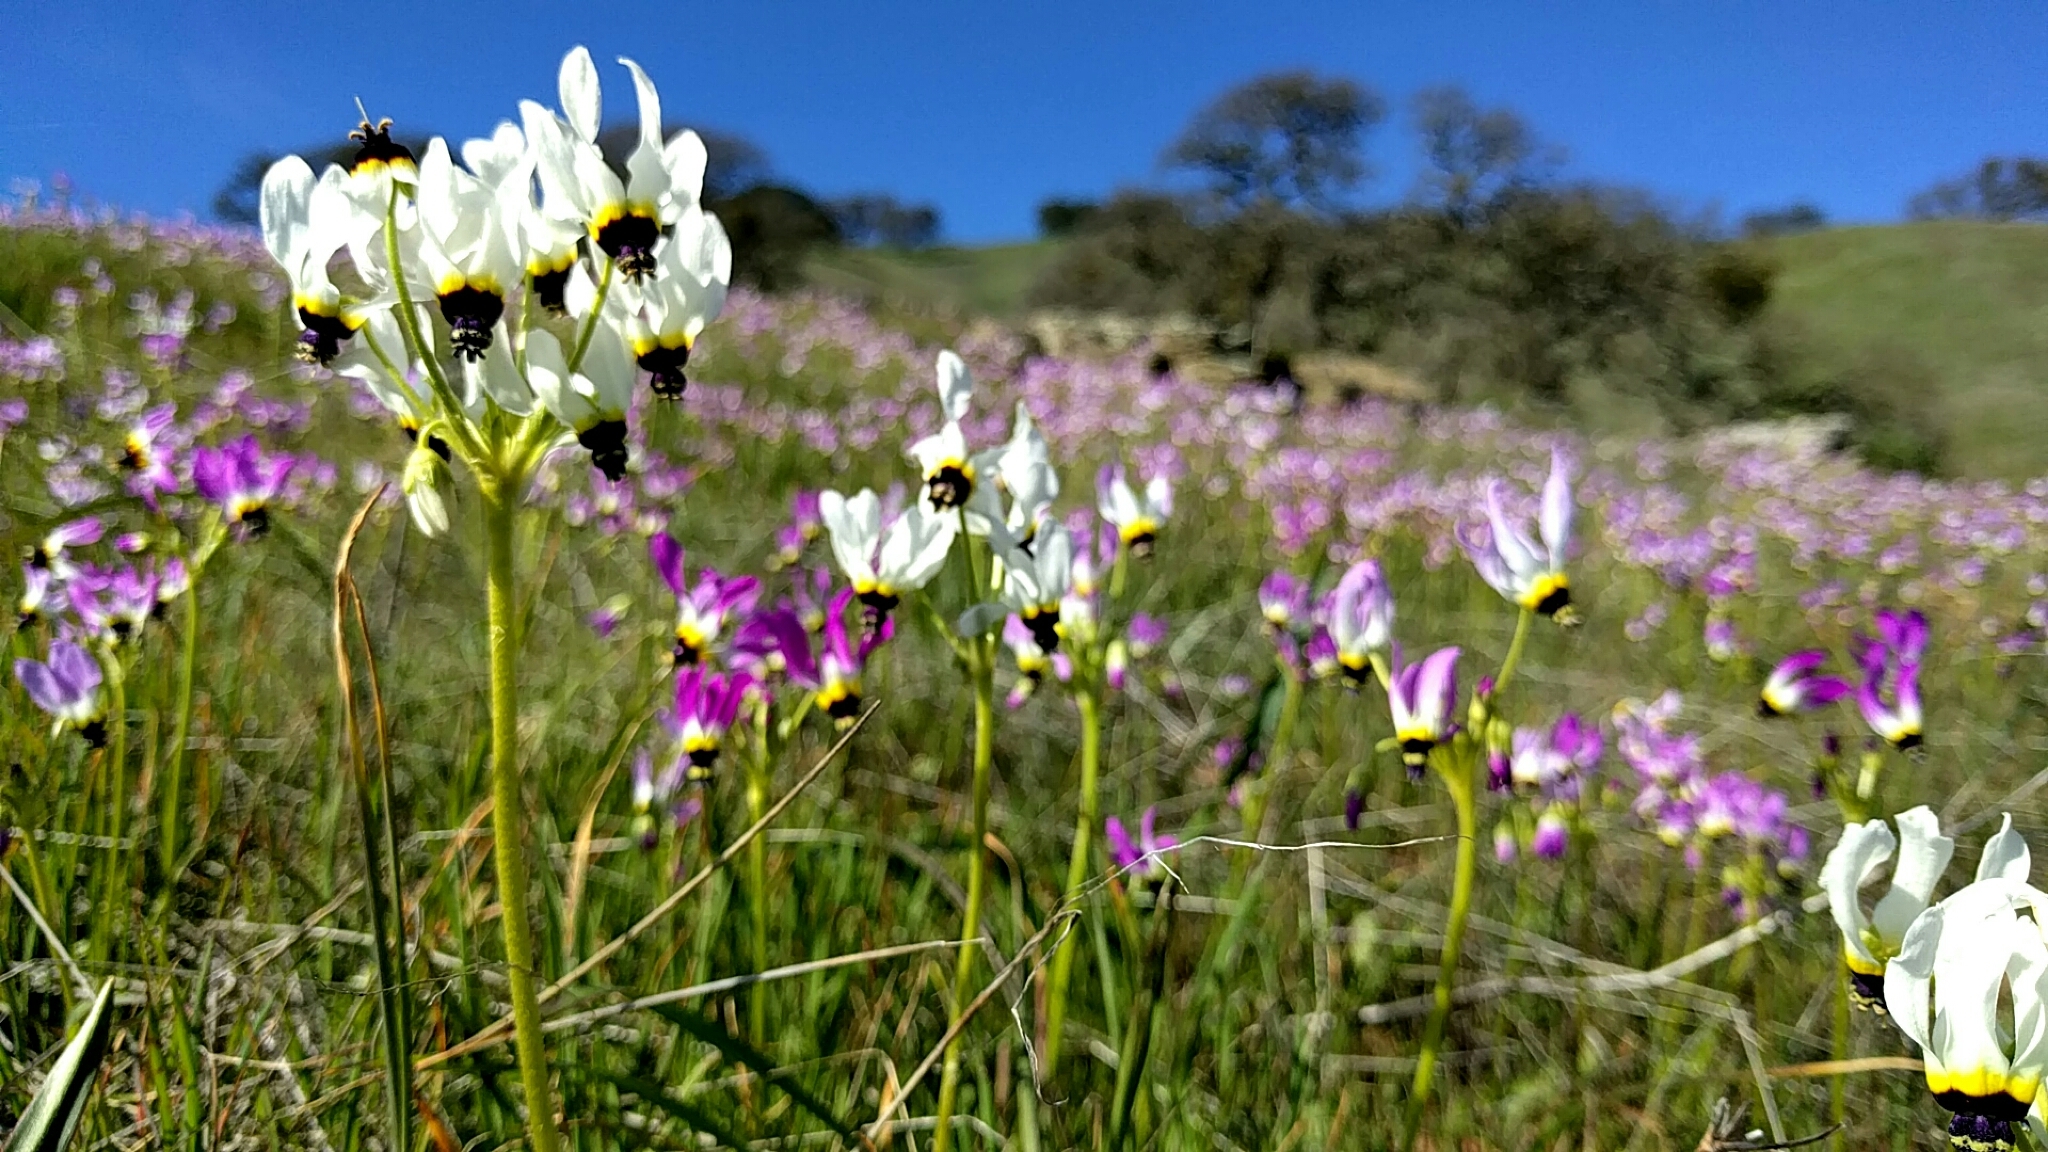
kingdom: Plantae
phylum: Tracheophyta
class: Magnoliopsida
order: Ericales
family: Primulaceae
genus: Dodecatheon
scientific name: Dodecatheon clevelandii
